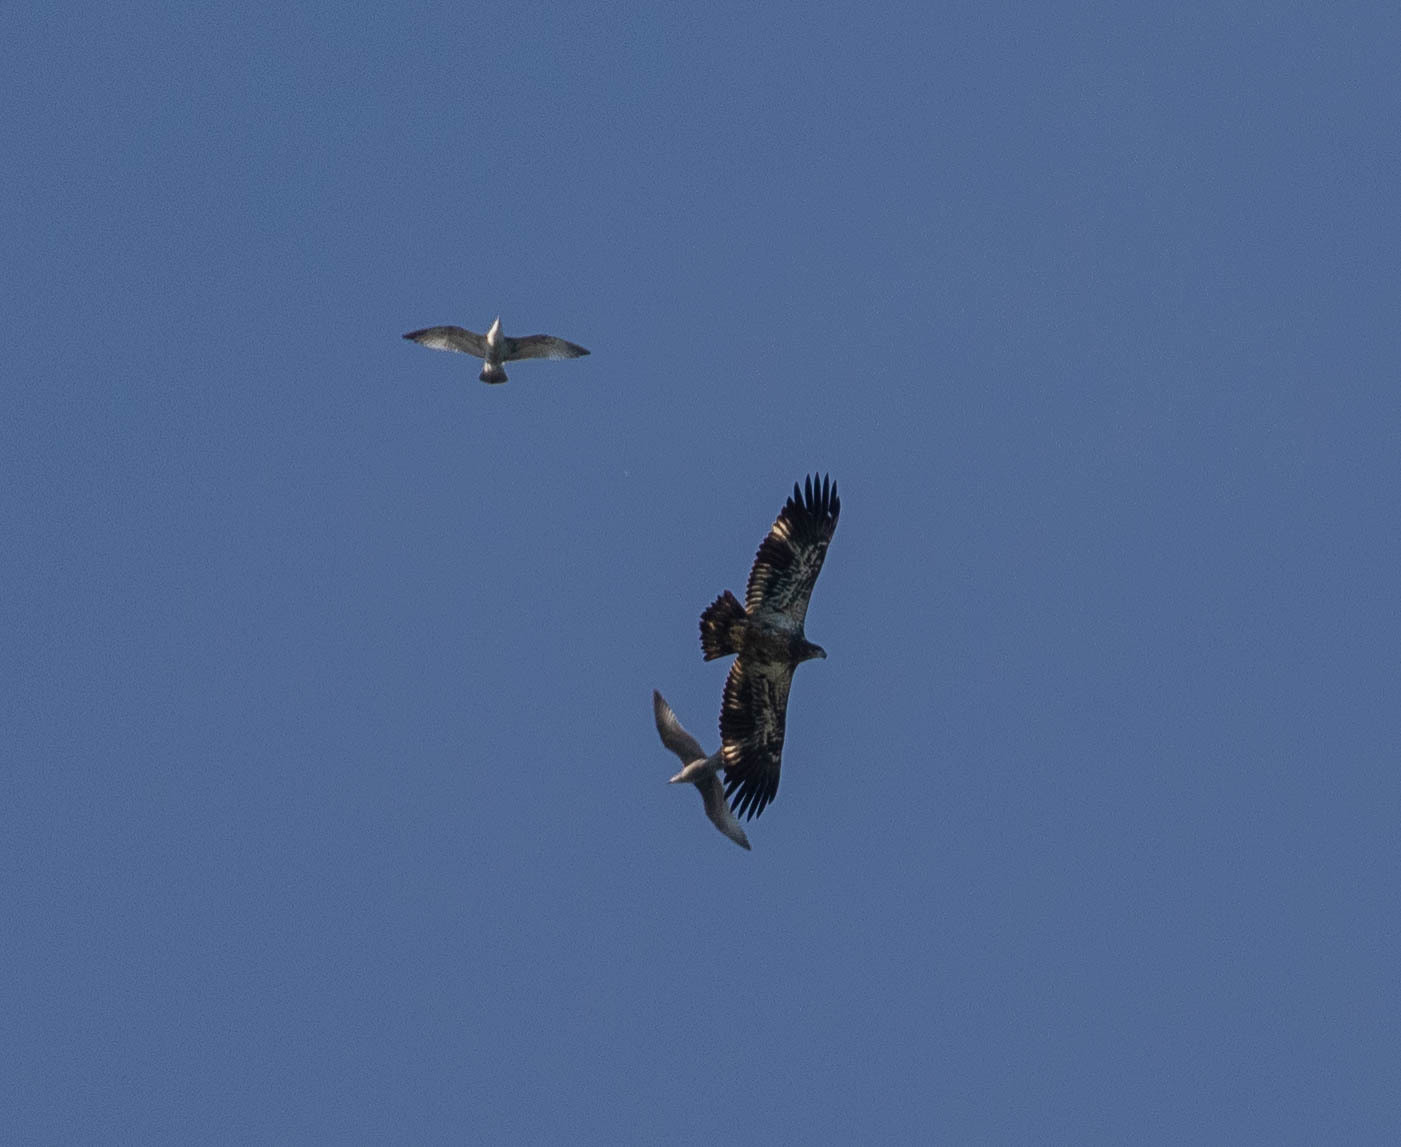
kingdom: Animalia
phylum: Chordata
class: Aves
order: Accipitriformes
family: Accipitridae
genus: Haliaeetus
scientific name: Haliaeetus leucocephalus
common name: Bald eagle
